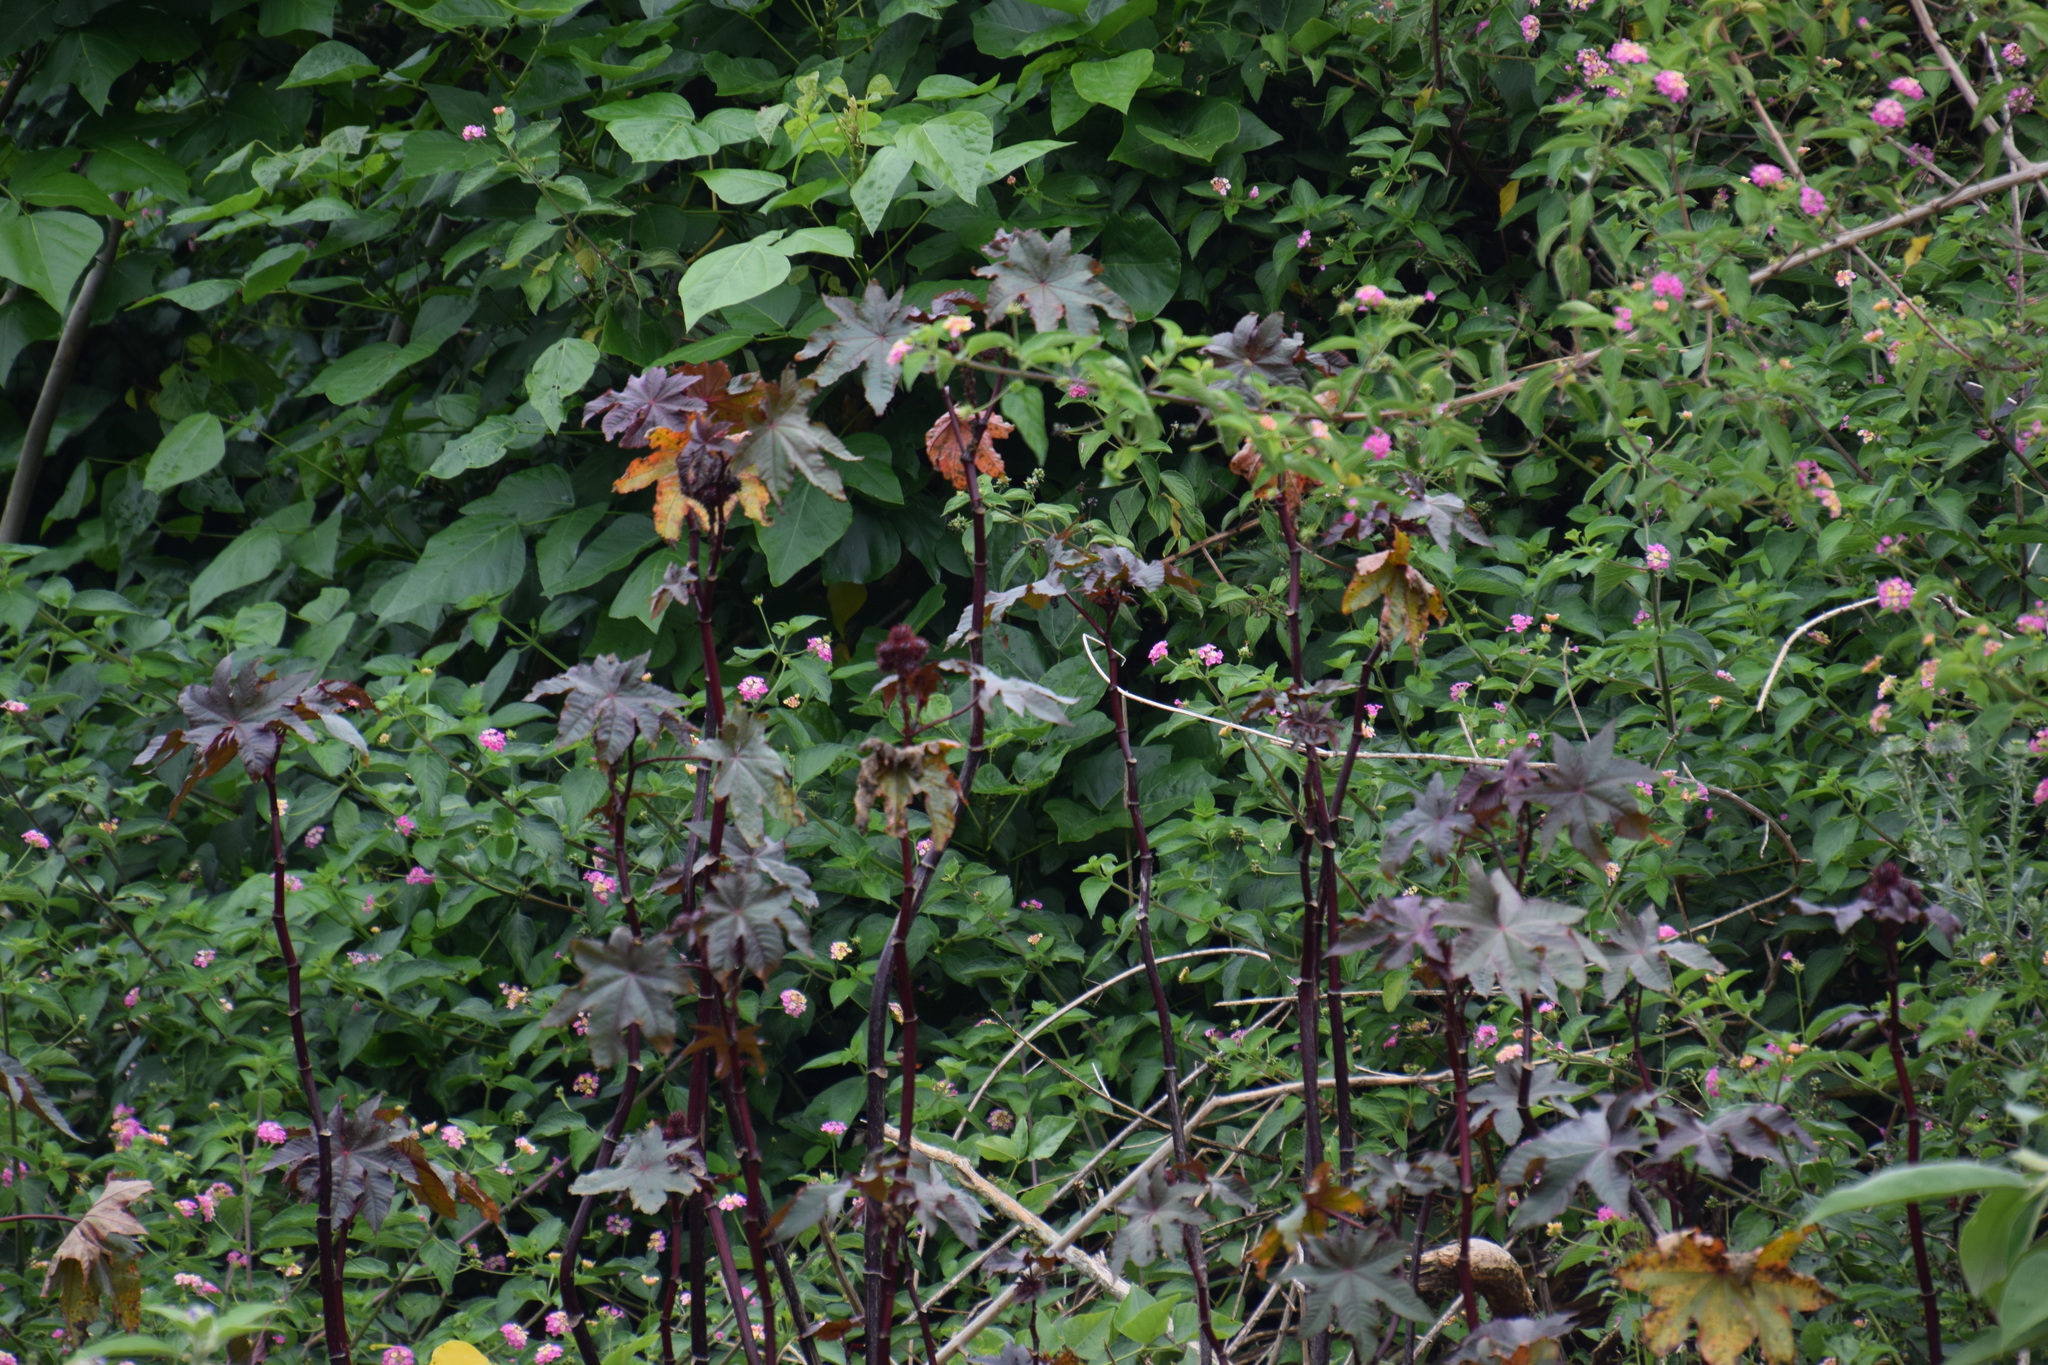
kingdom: Plantae
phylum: Tracheophyta
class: Magnoliopsida
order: Malpighiales
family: Euphorbiaceae
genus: Ricinus
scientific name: Ricinus communis
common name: Castor-oil-plant
